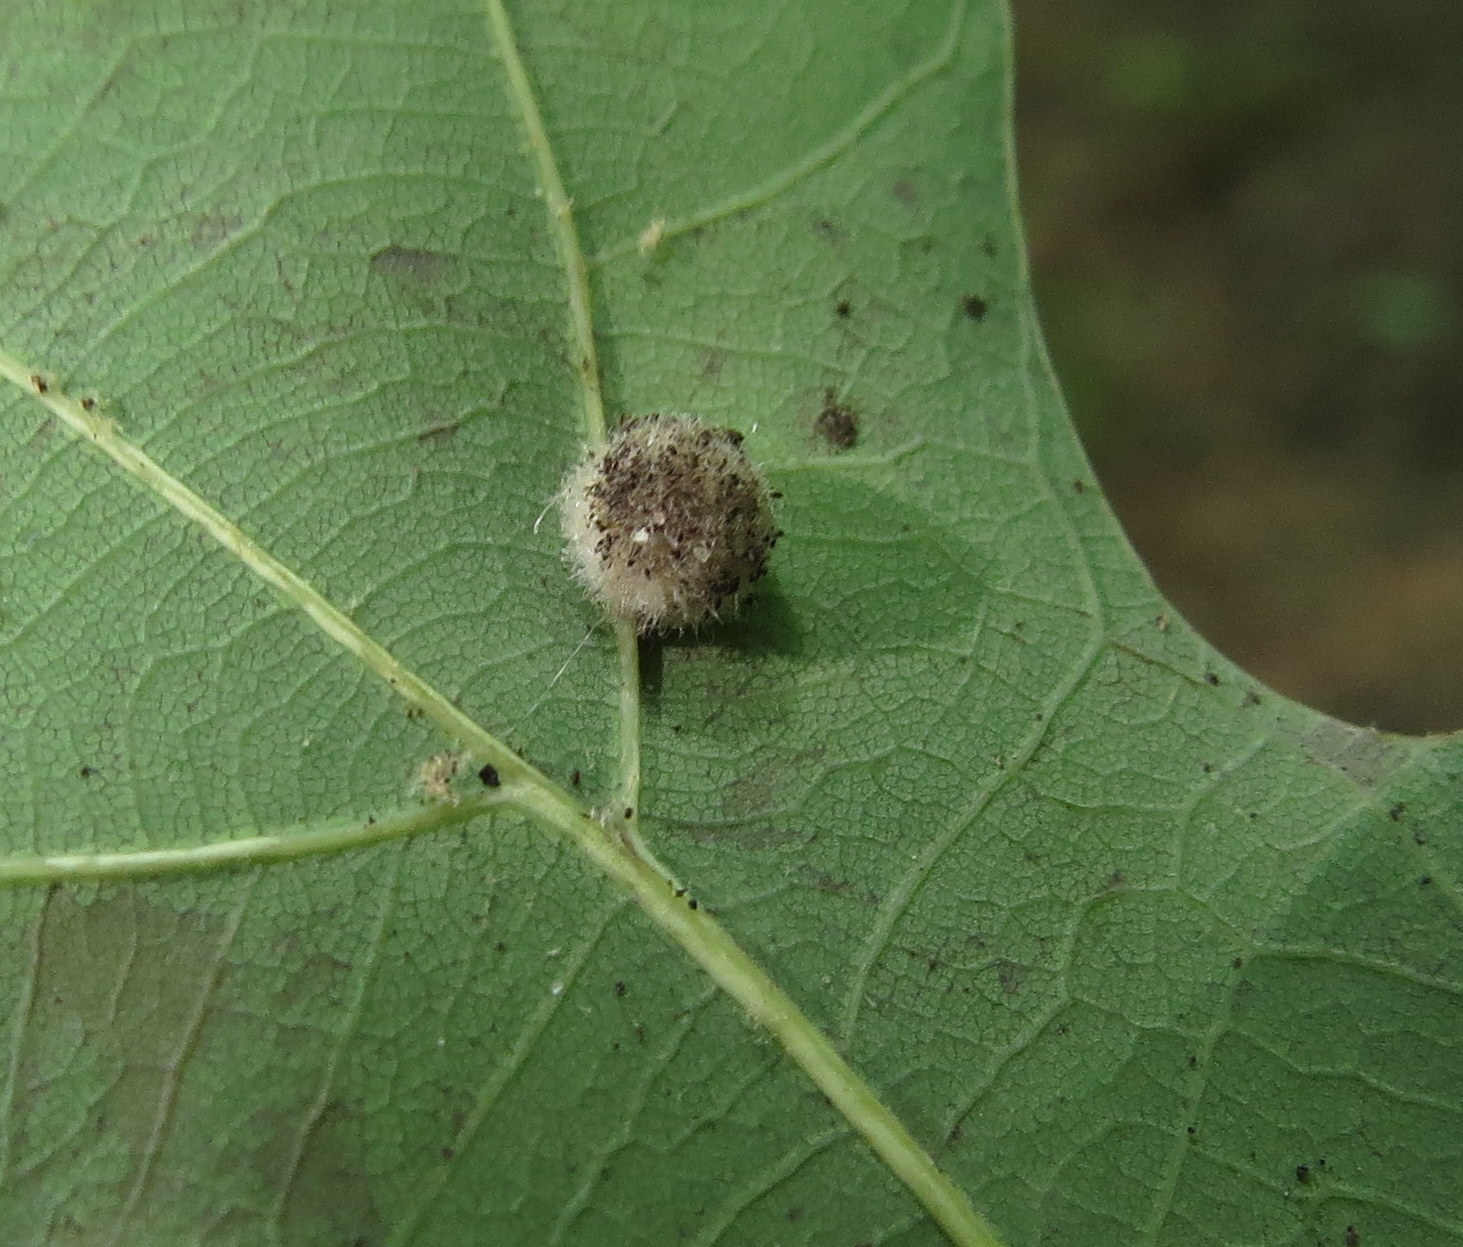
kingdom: Animalia
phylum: Arthropoda
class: Insecta
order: Hymenoptera
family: Cynipidae
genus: Philonix
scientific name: Philonix fulvicollis
